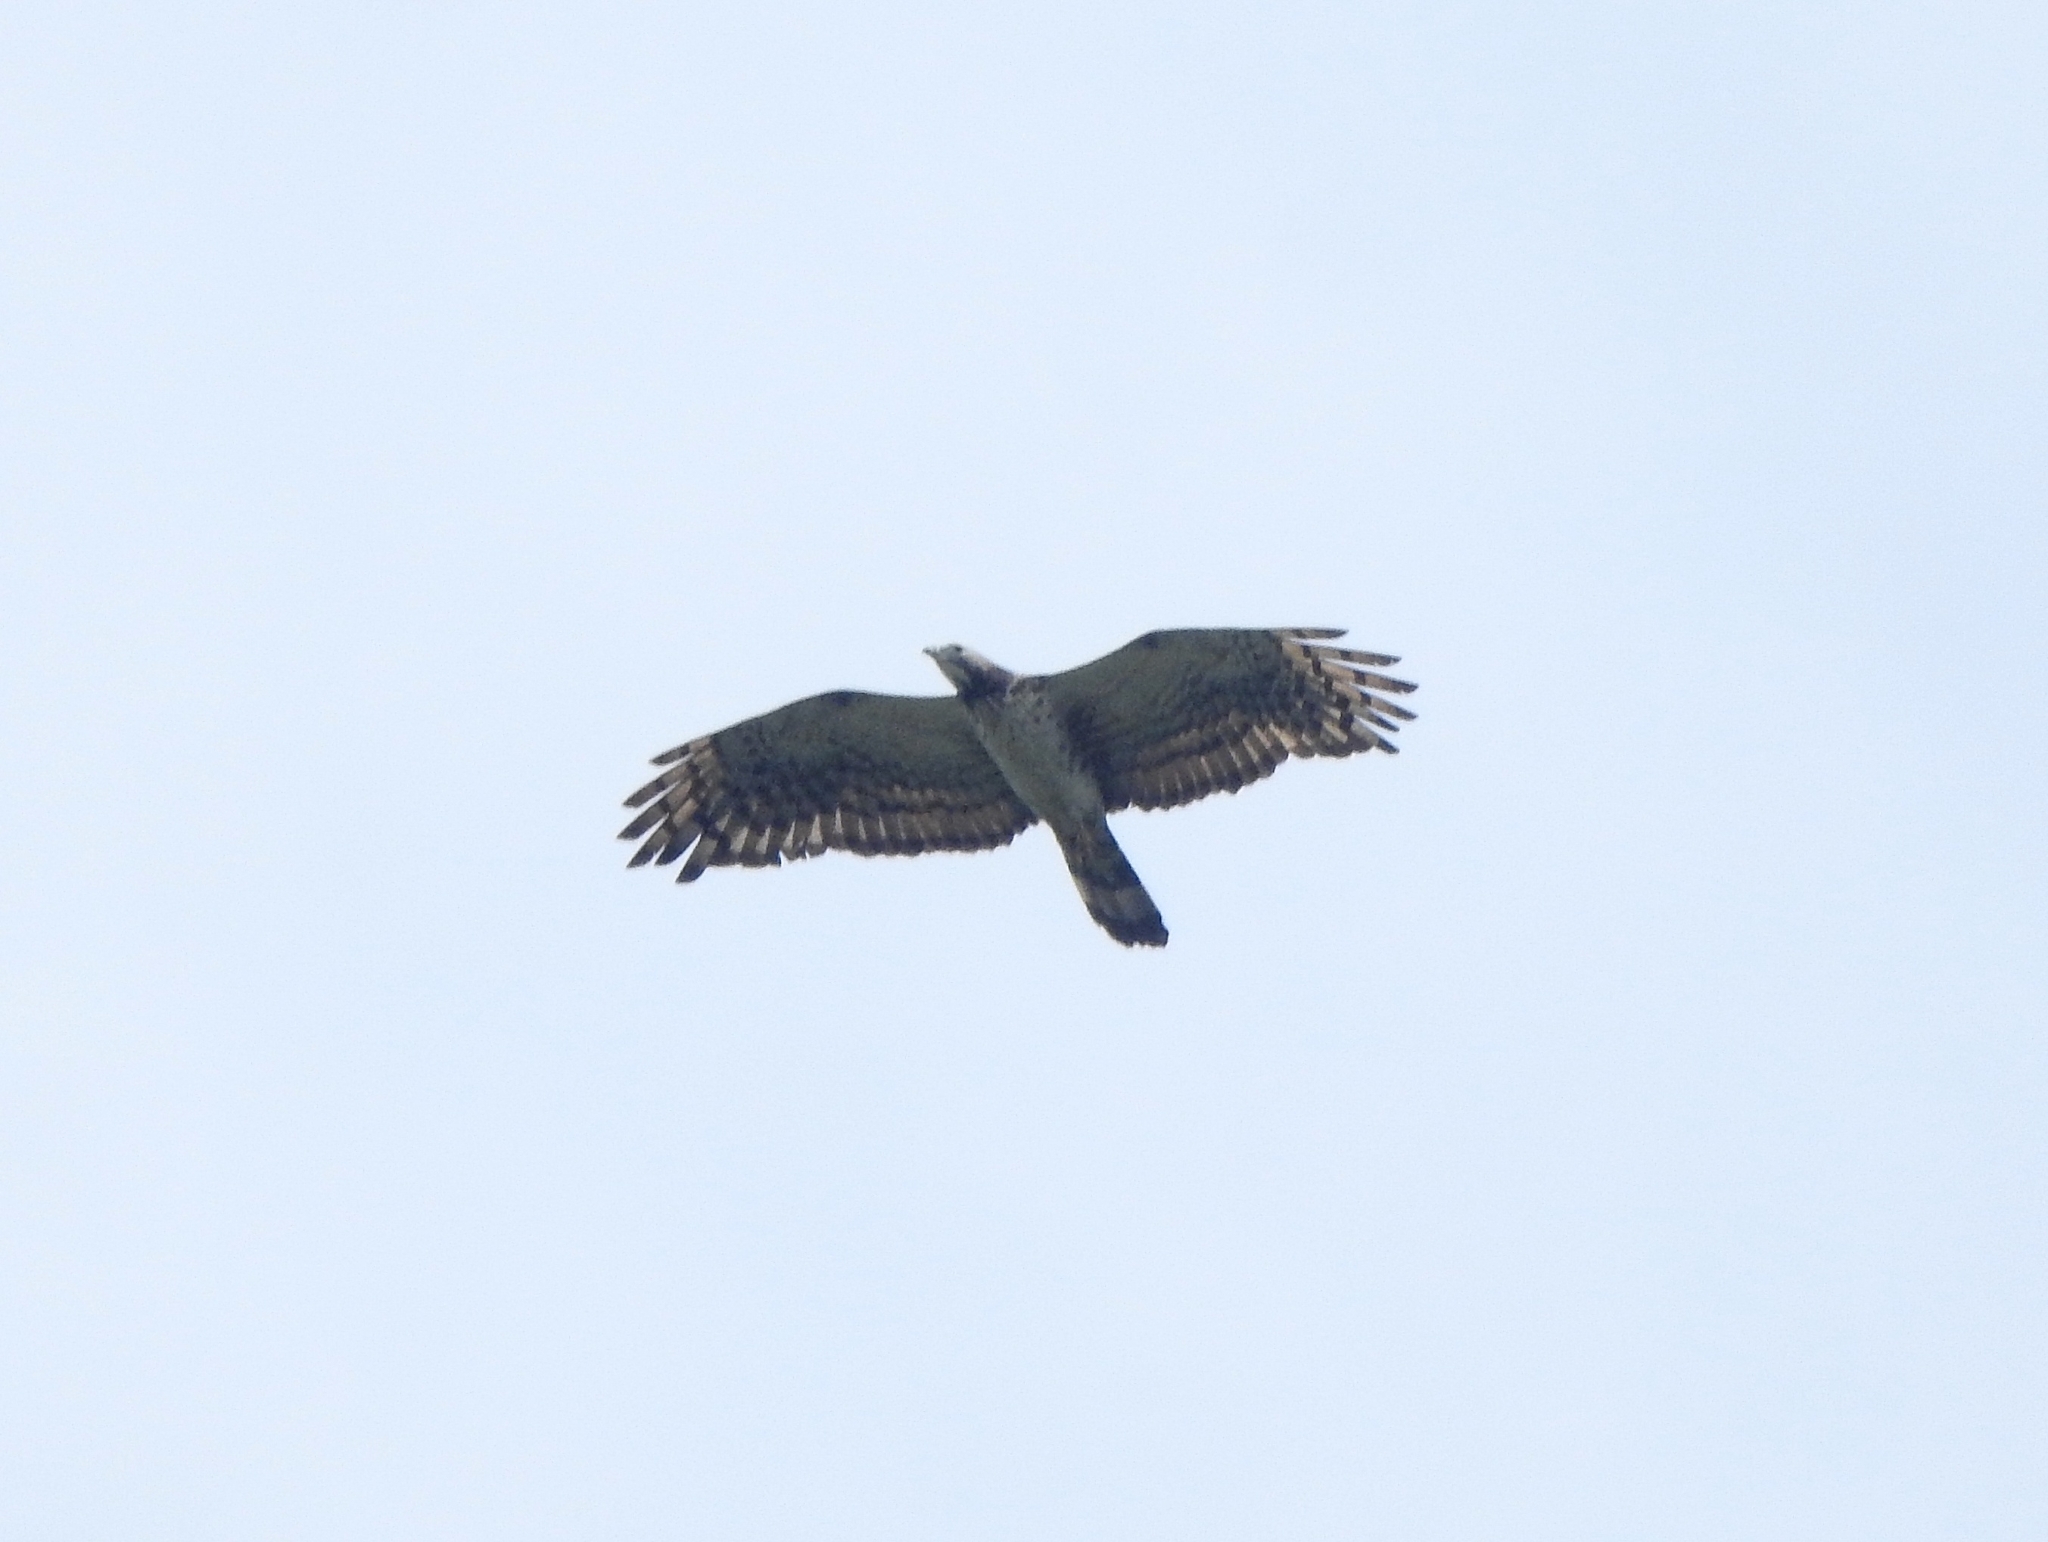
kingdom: Animalia
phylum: Chordata
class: Aves
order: Accipitriformes
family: Accipitridae
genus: Pernis
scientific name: Pernis ptilorhynchus
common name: Crested honey buzzard
